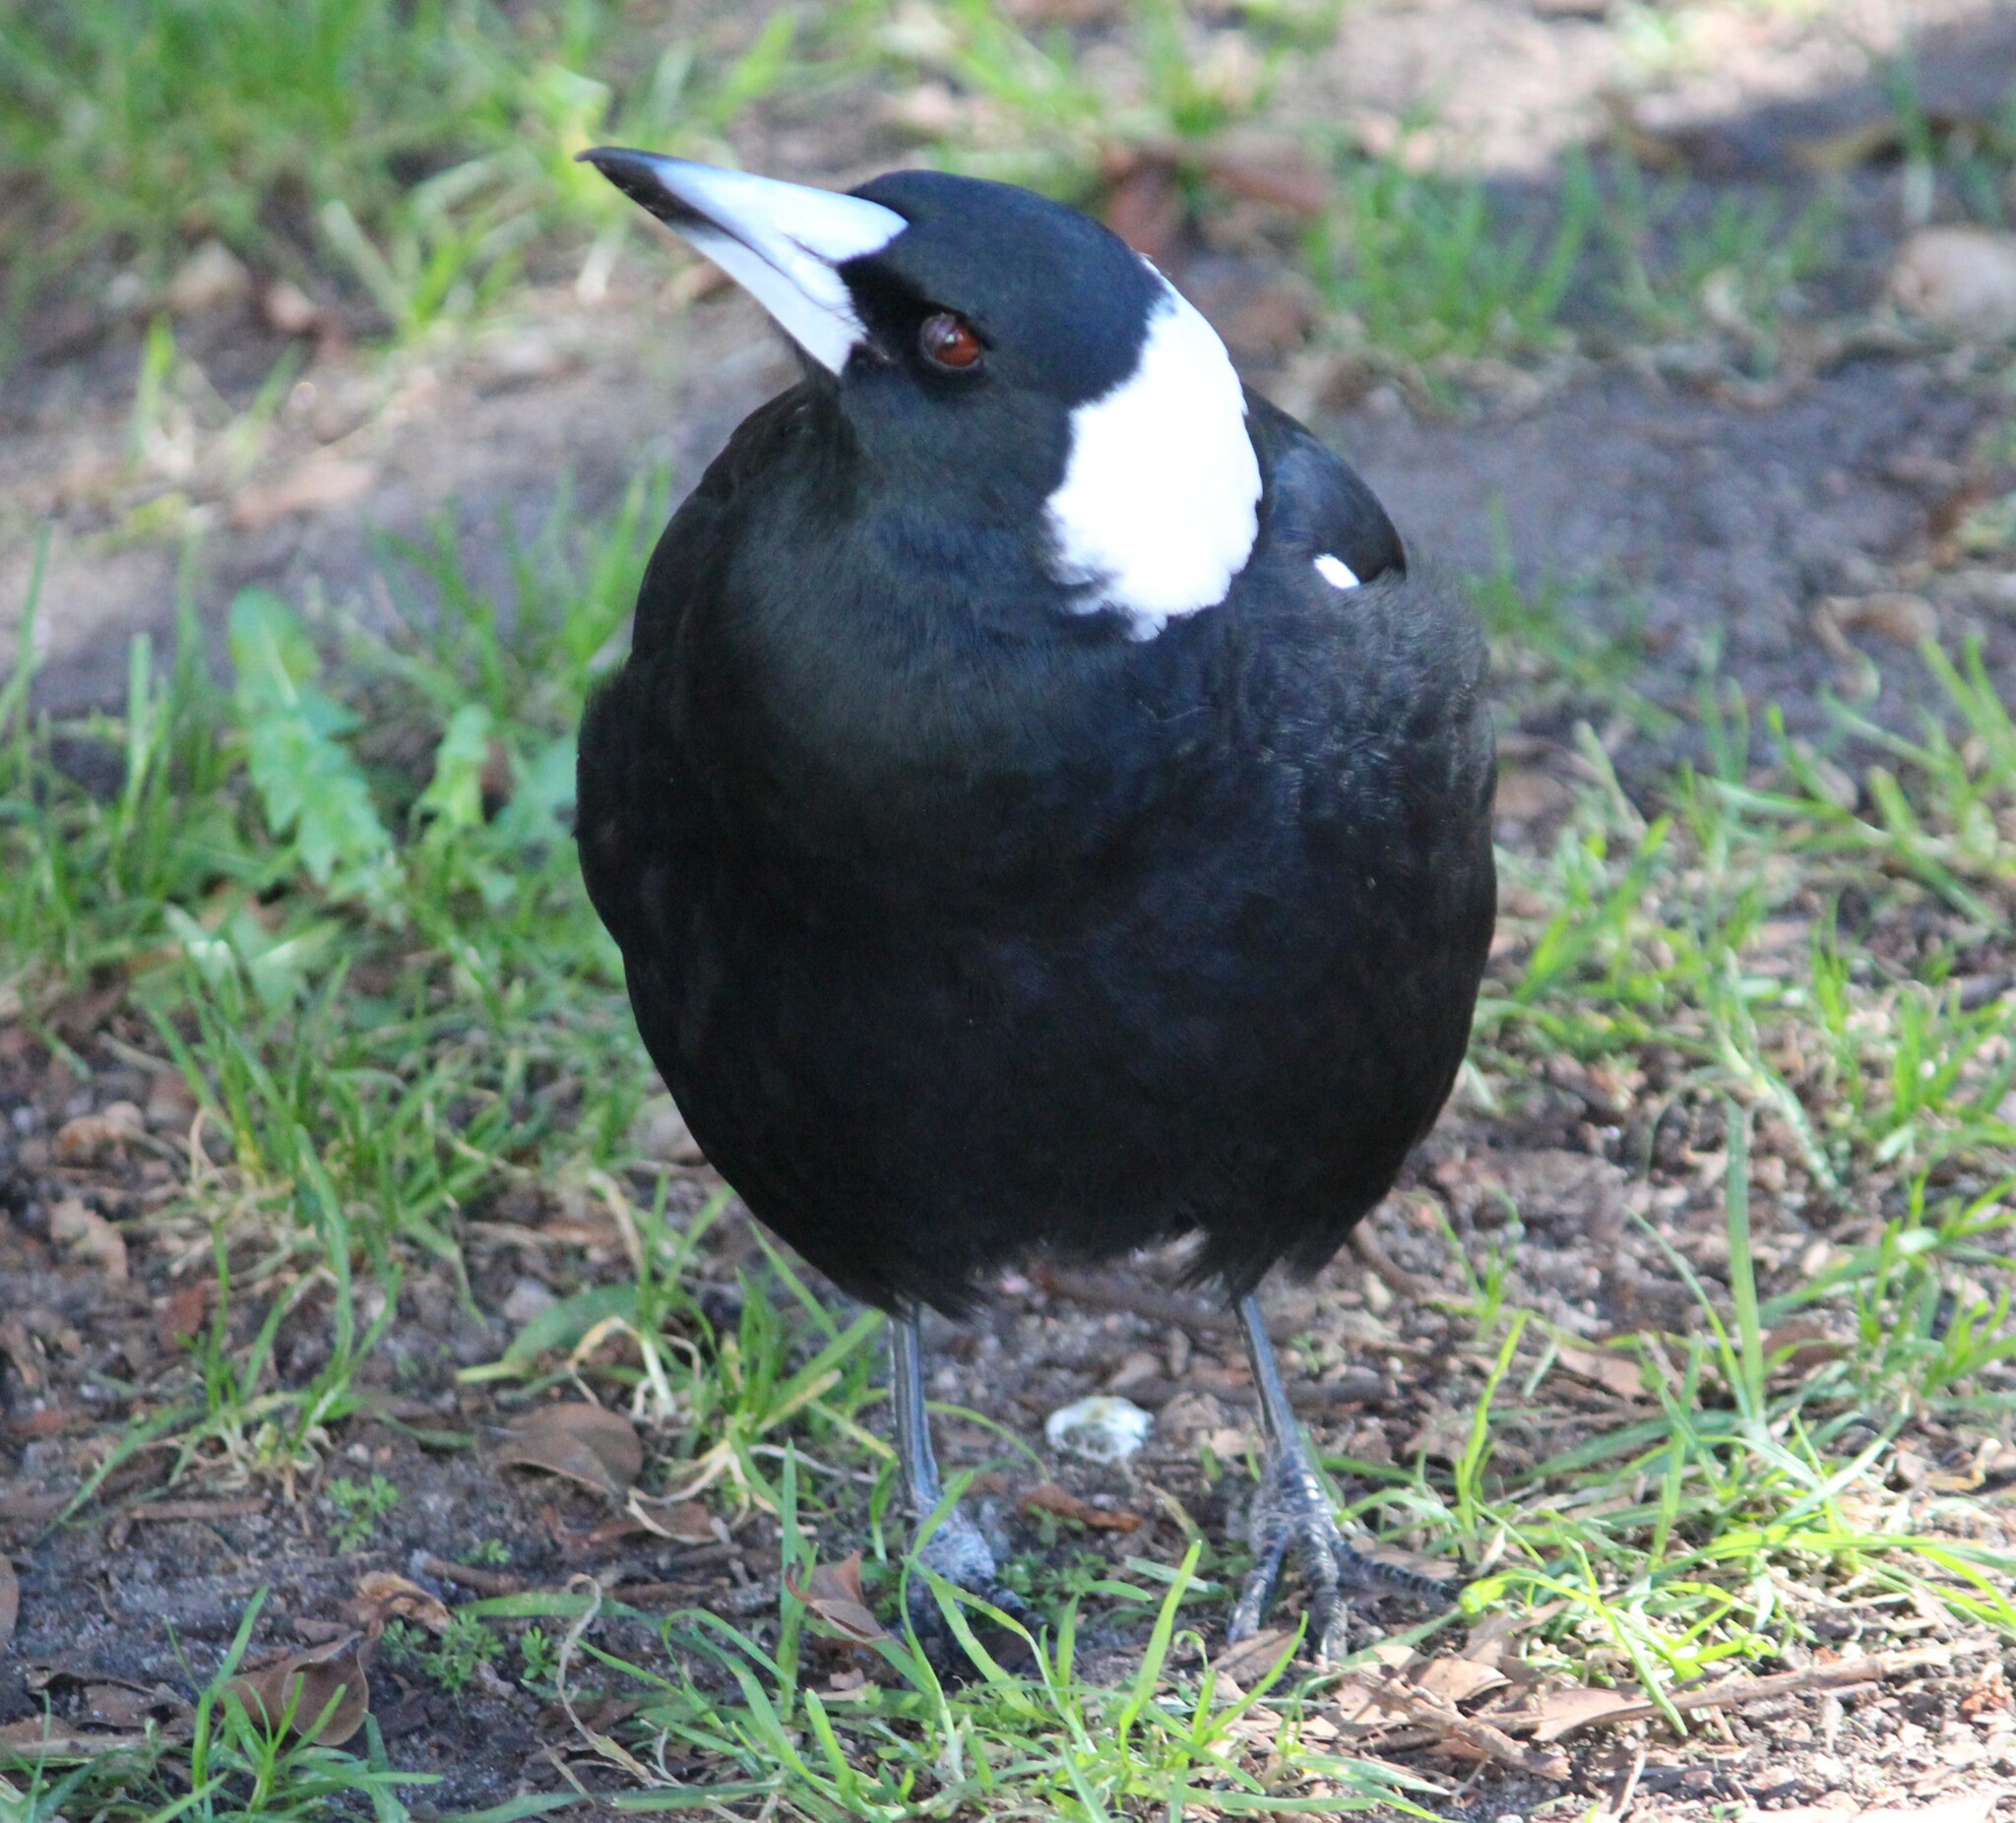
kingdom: Animalia
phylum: Chordata
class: Aves
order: Passeriformes
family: Cracticidae
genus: Gymnorhina
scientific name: Gymnorhina tibicen
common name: Australian magpie
